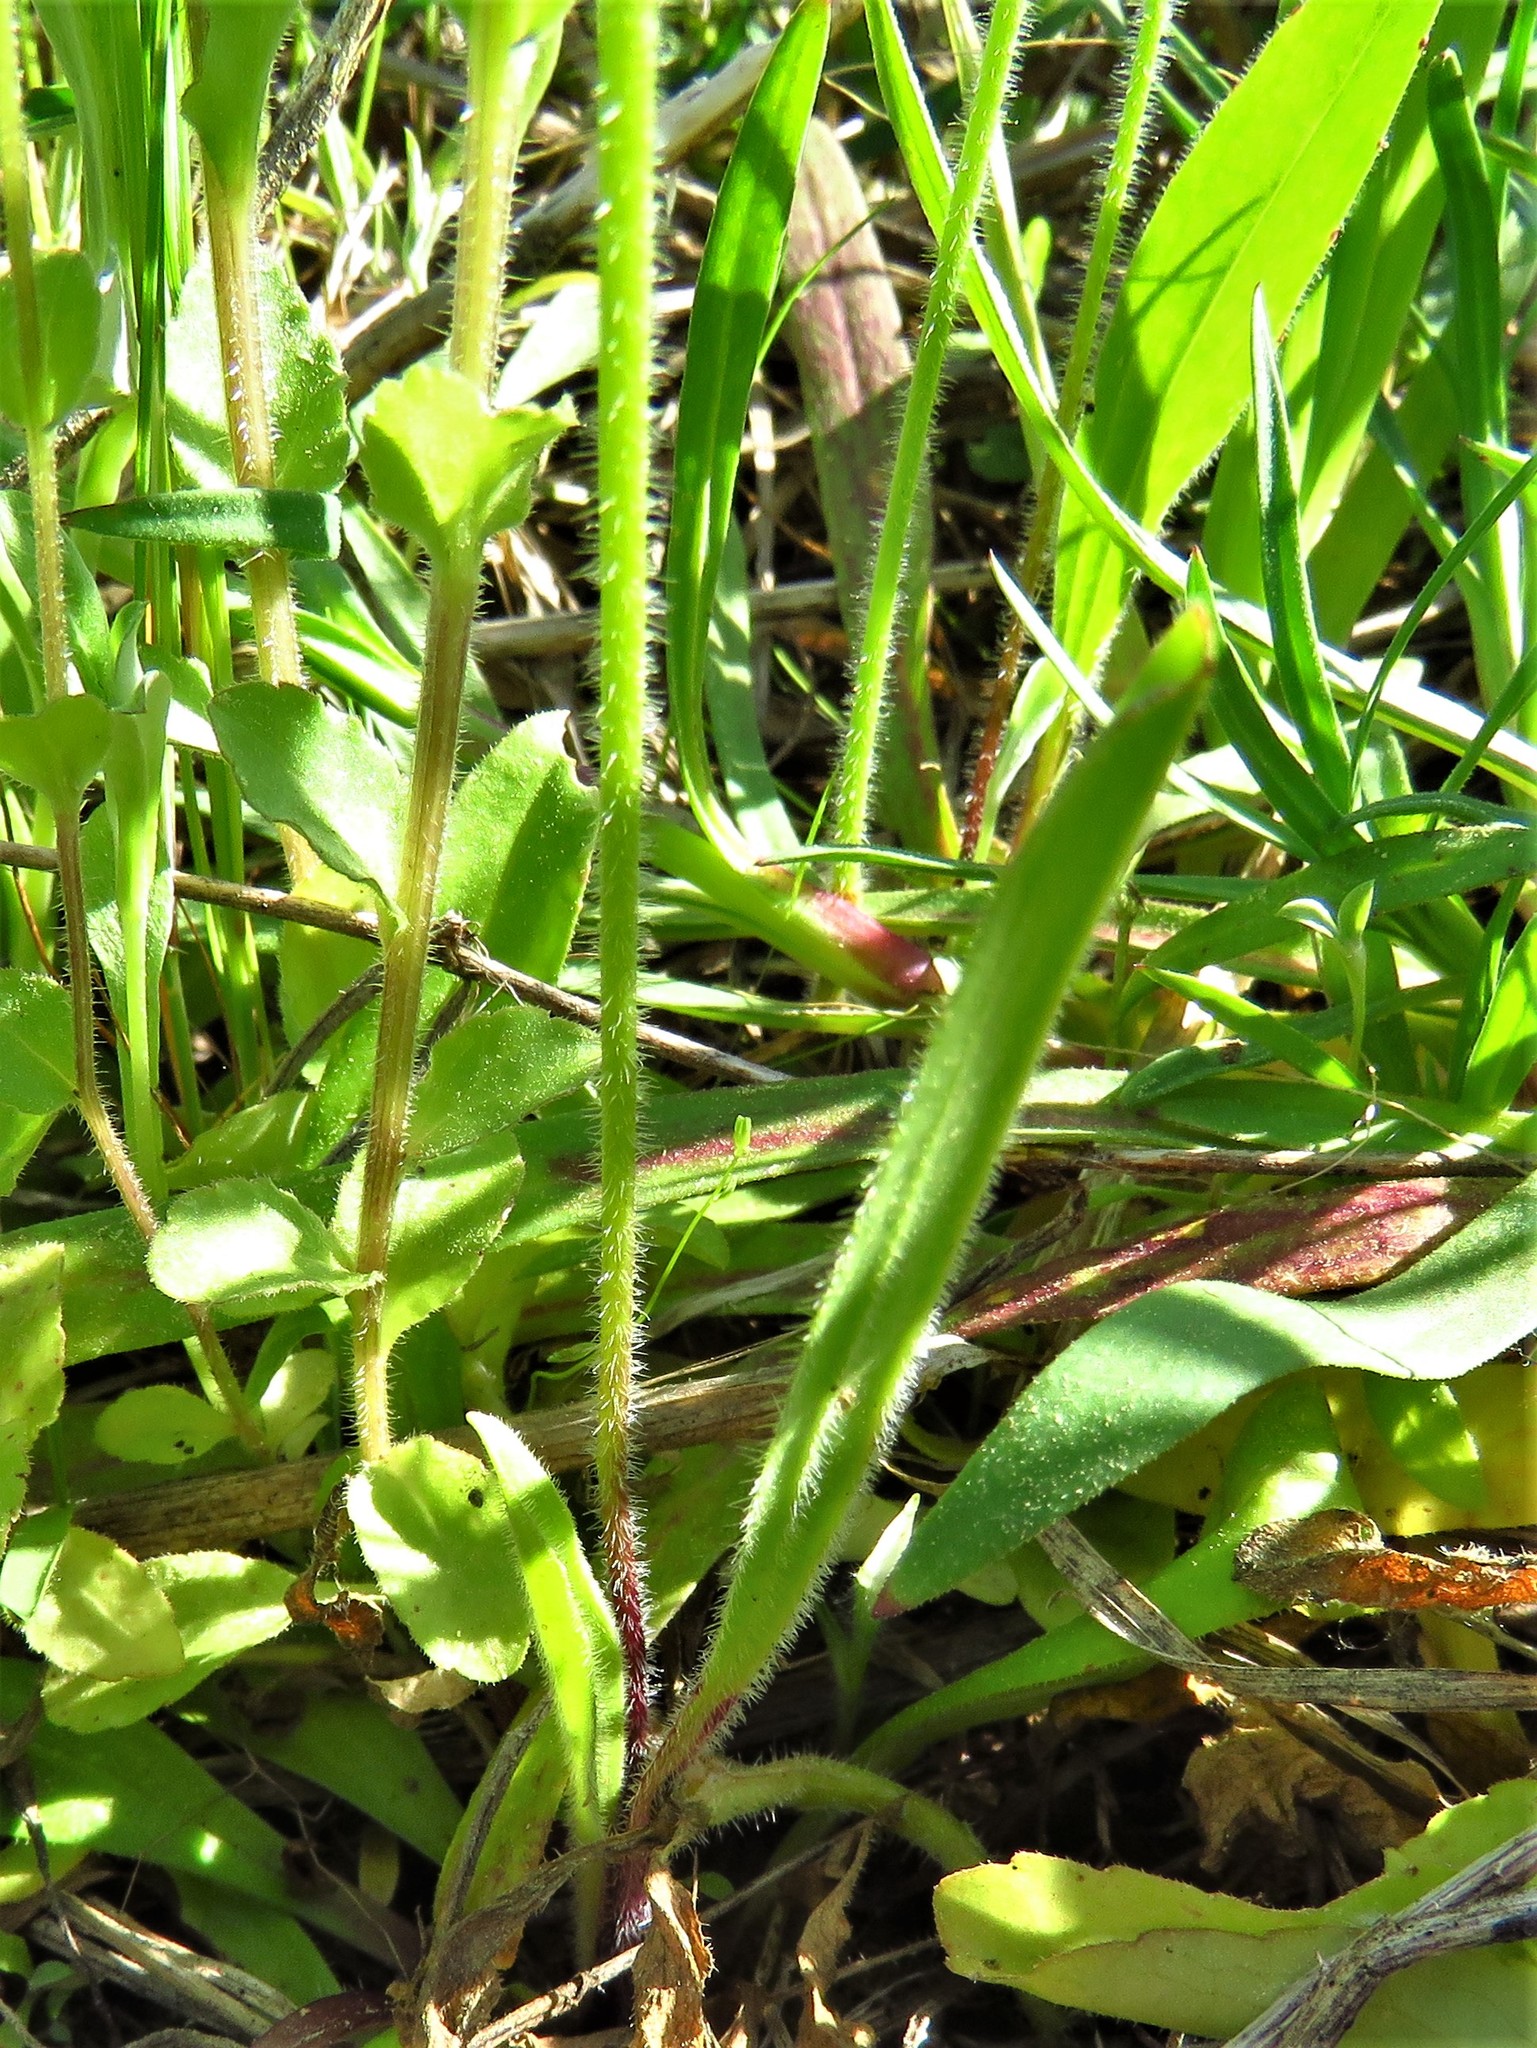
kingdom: Plantae
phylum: Tracheophyta
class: Magnoliopsida
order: Lamiales
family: Plantaginaceae
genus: Plantago
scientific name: Plantago virginica
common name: Hoary plantain
